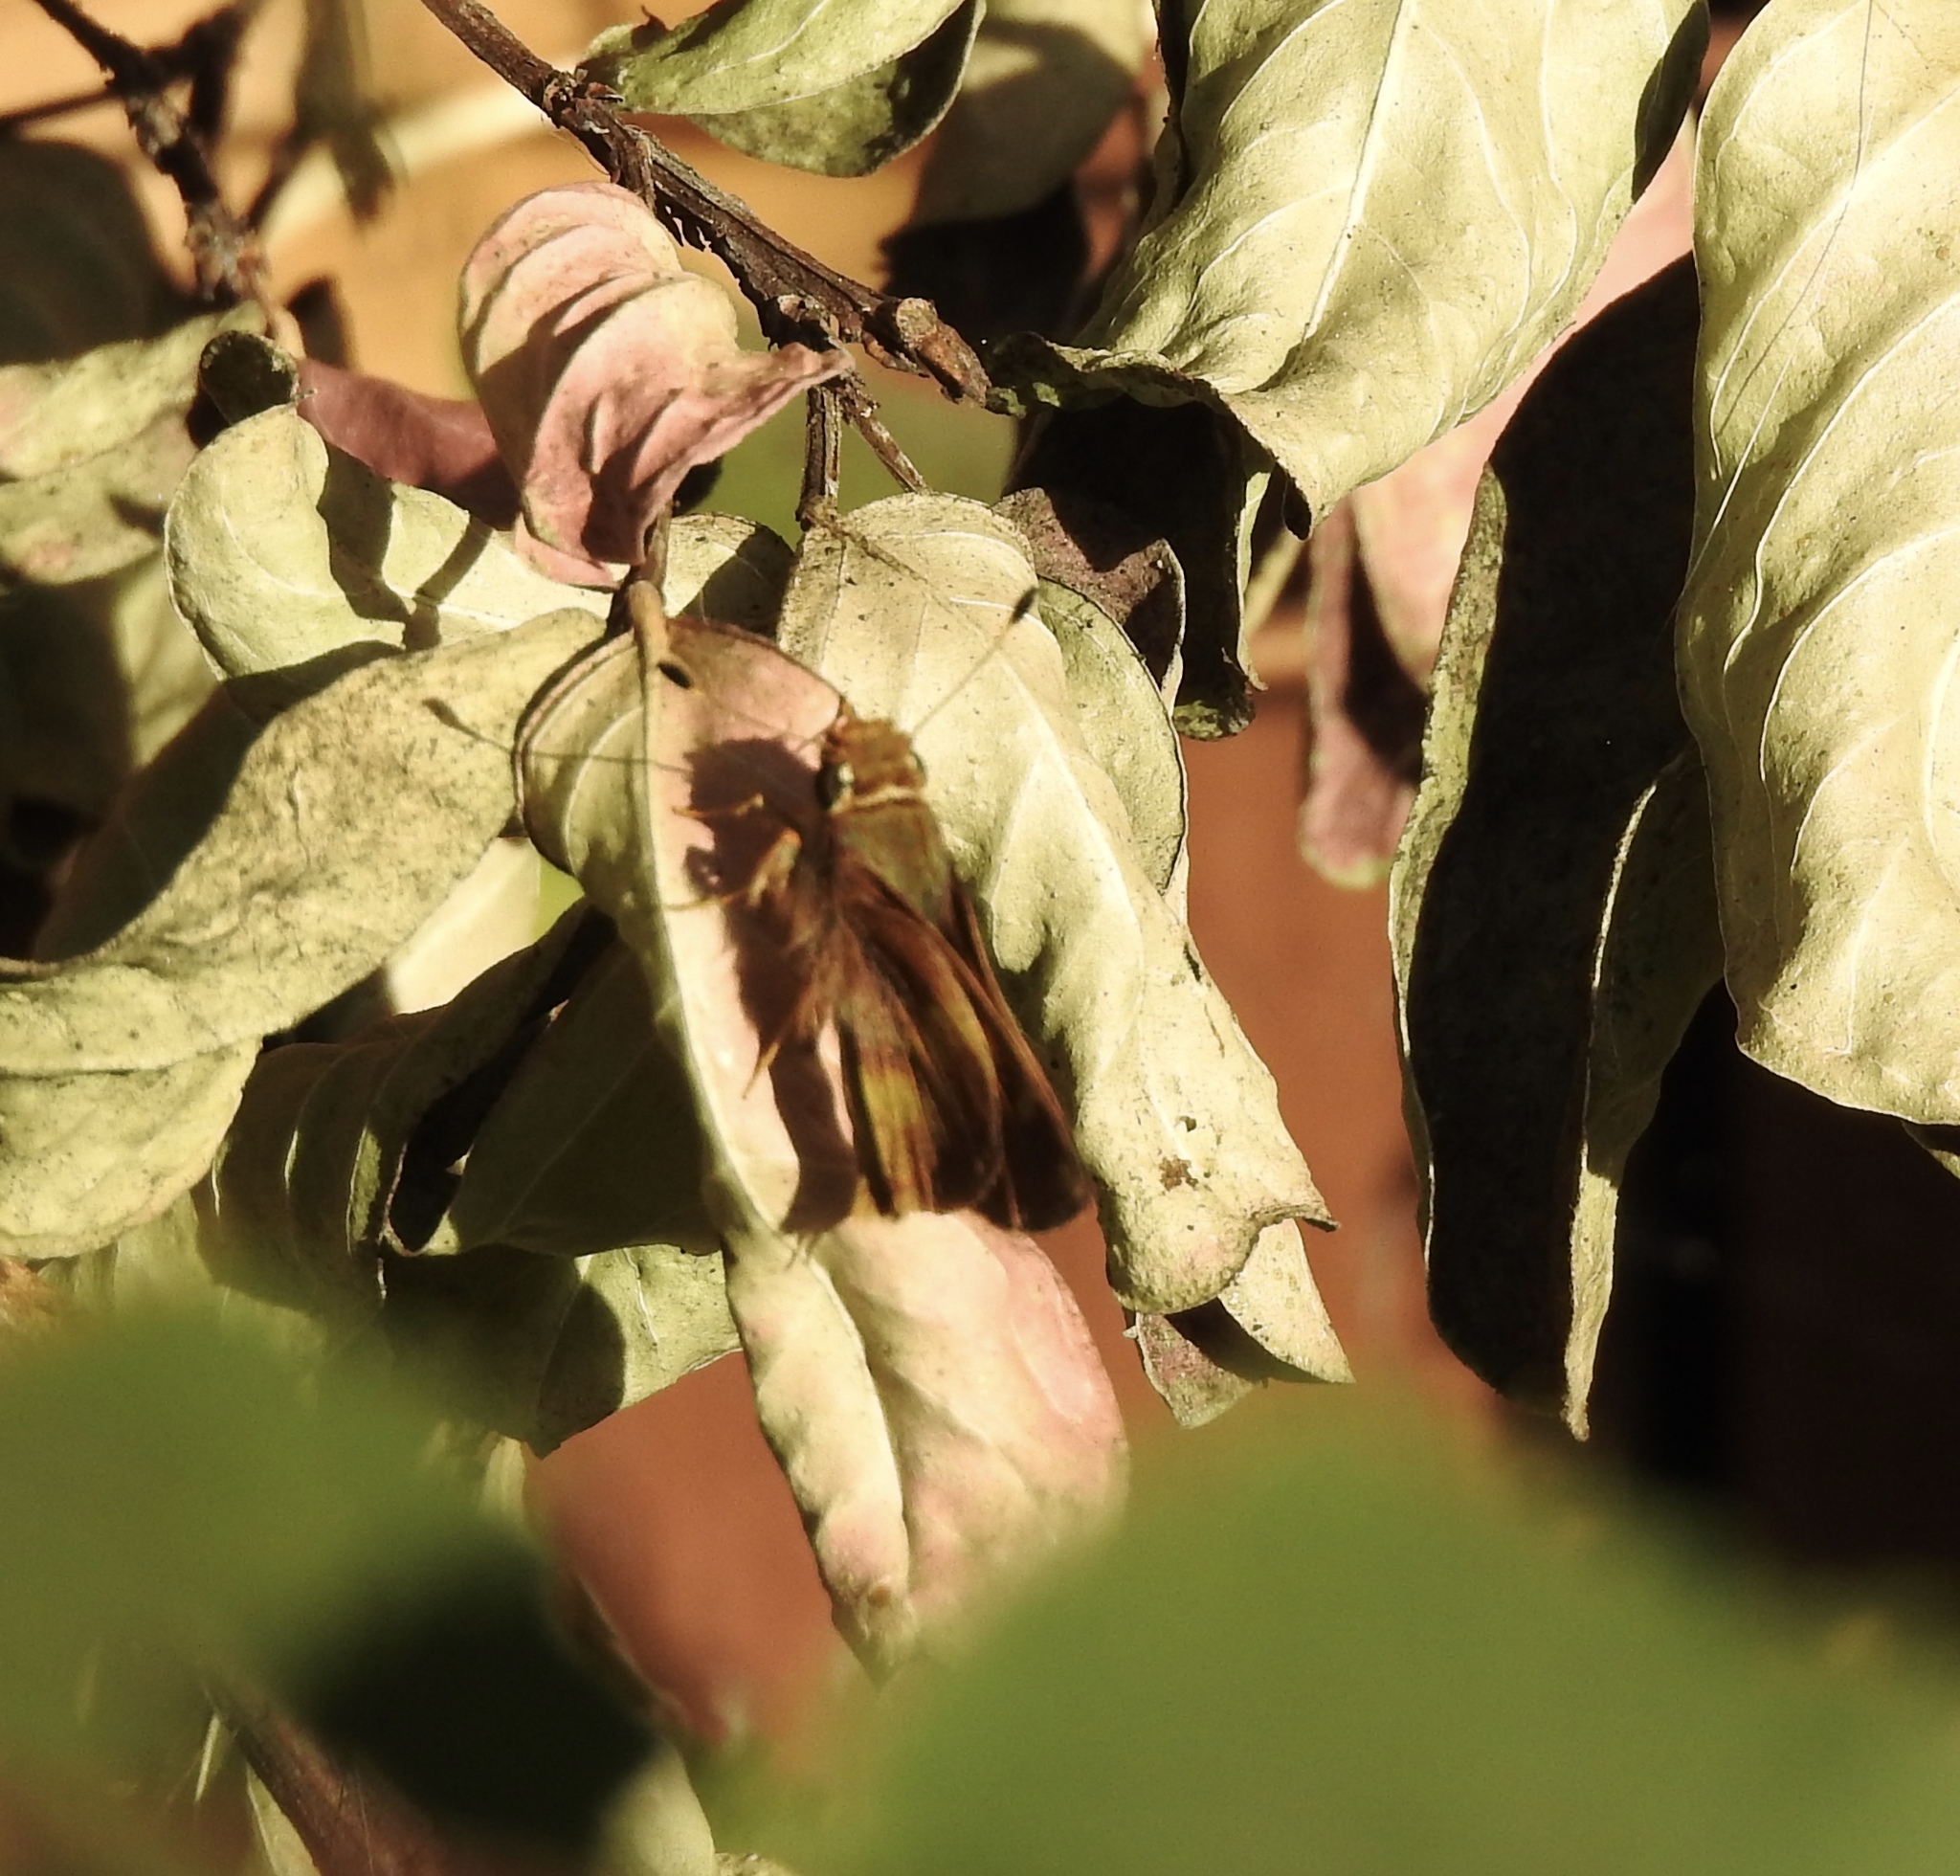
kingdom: Animalia
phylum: Arthropoda
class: Insecta
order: Lepidoptera
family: Hesperiidae
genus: Lon
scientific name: Lon melane
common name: Umber skipper
